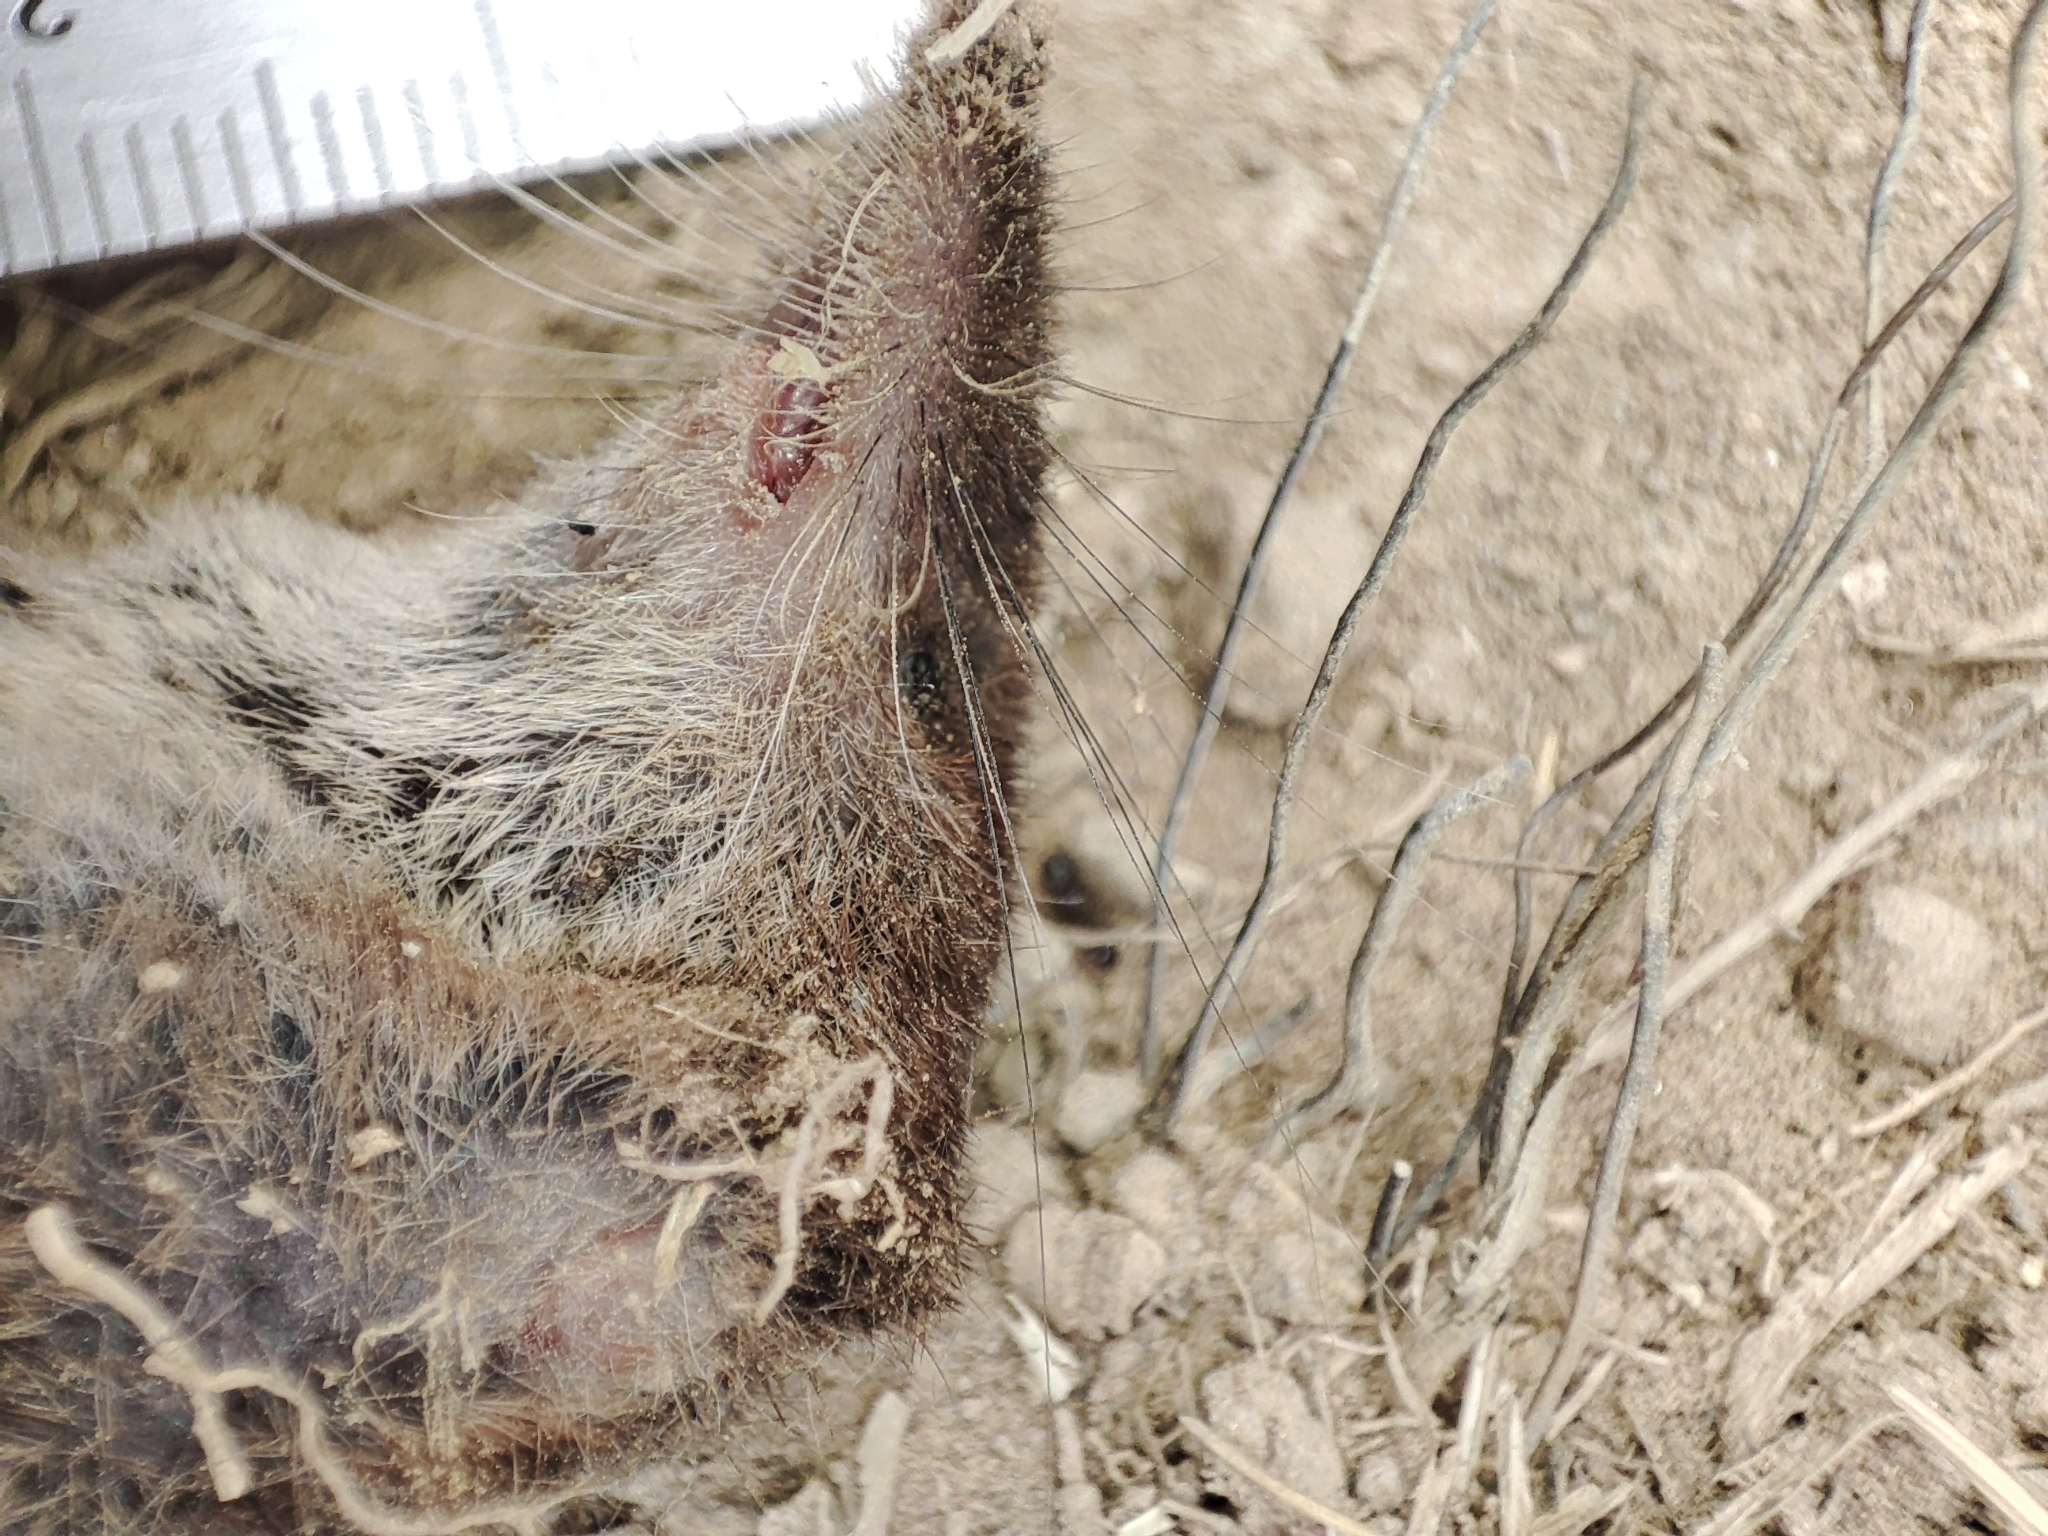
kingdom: Animalia
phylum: Chordata
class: Mammalia
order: Soricomorpha
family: Soricidae
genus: Sorex
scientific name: Sorex araneus
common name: Common shrew
